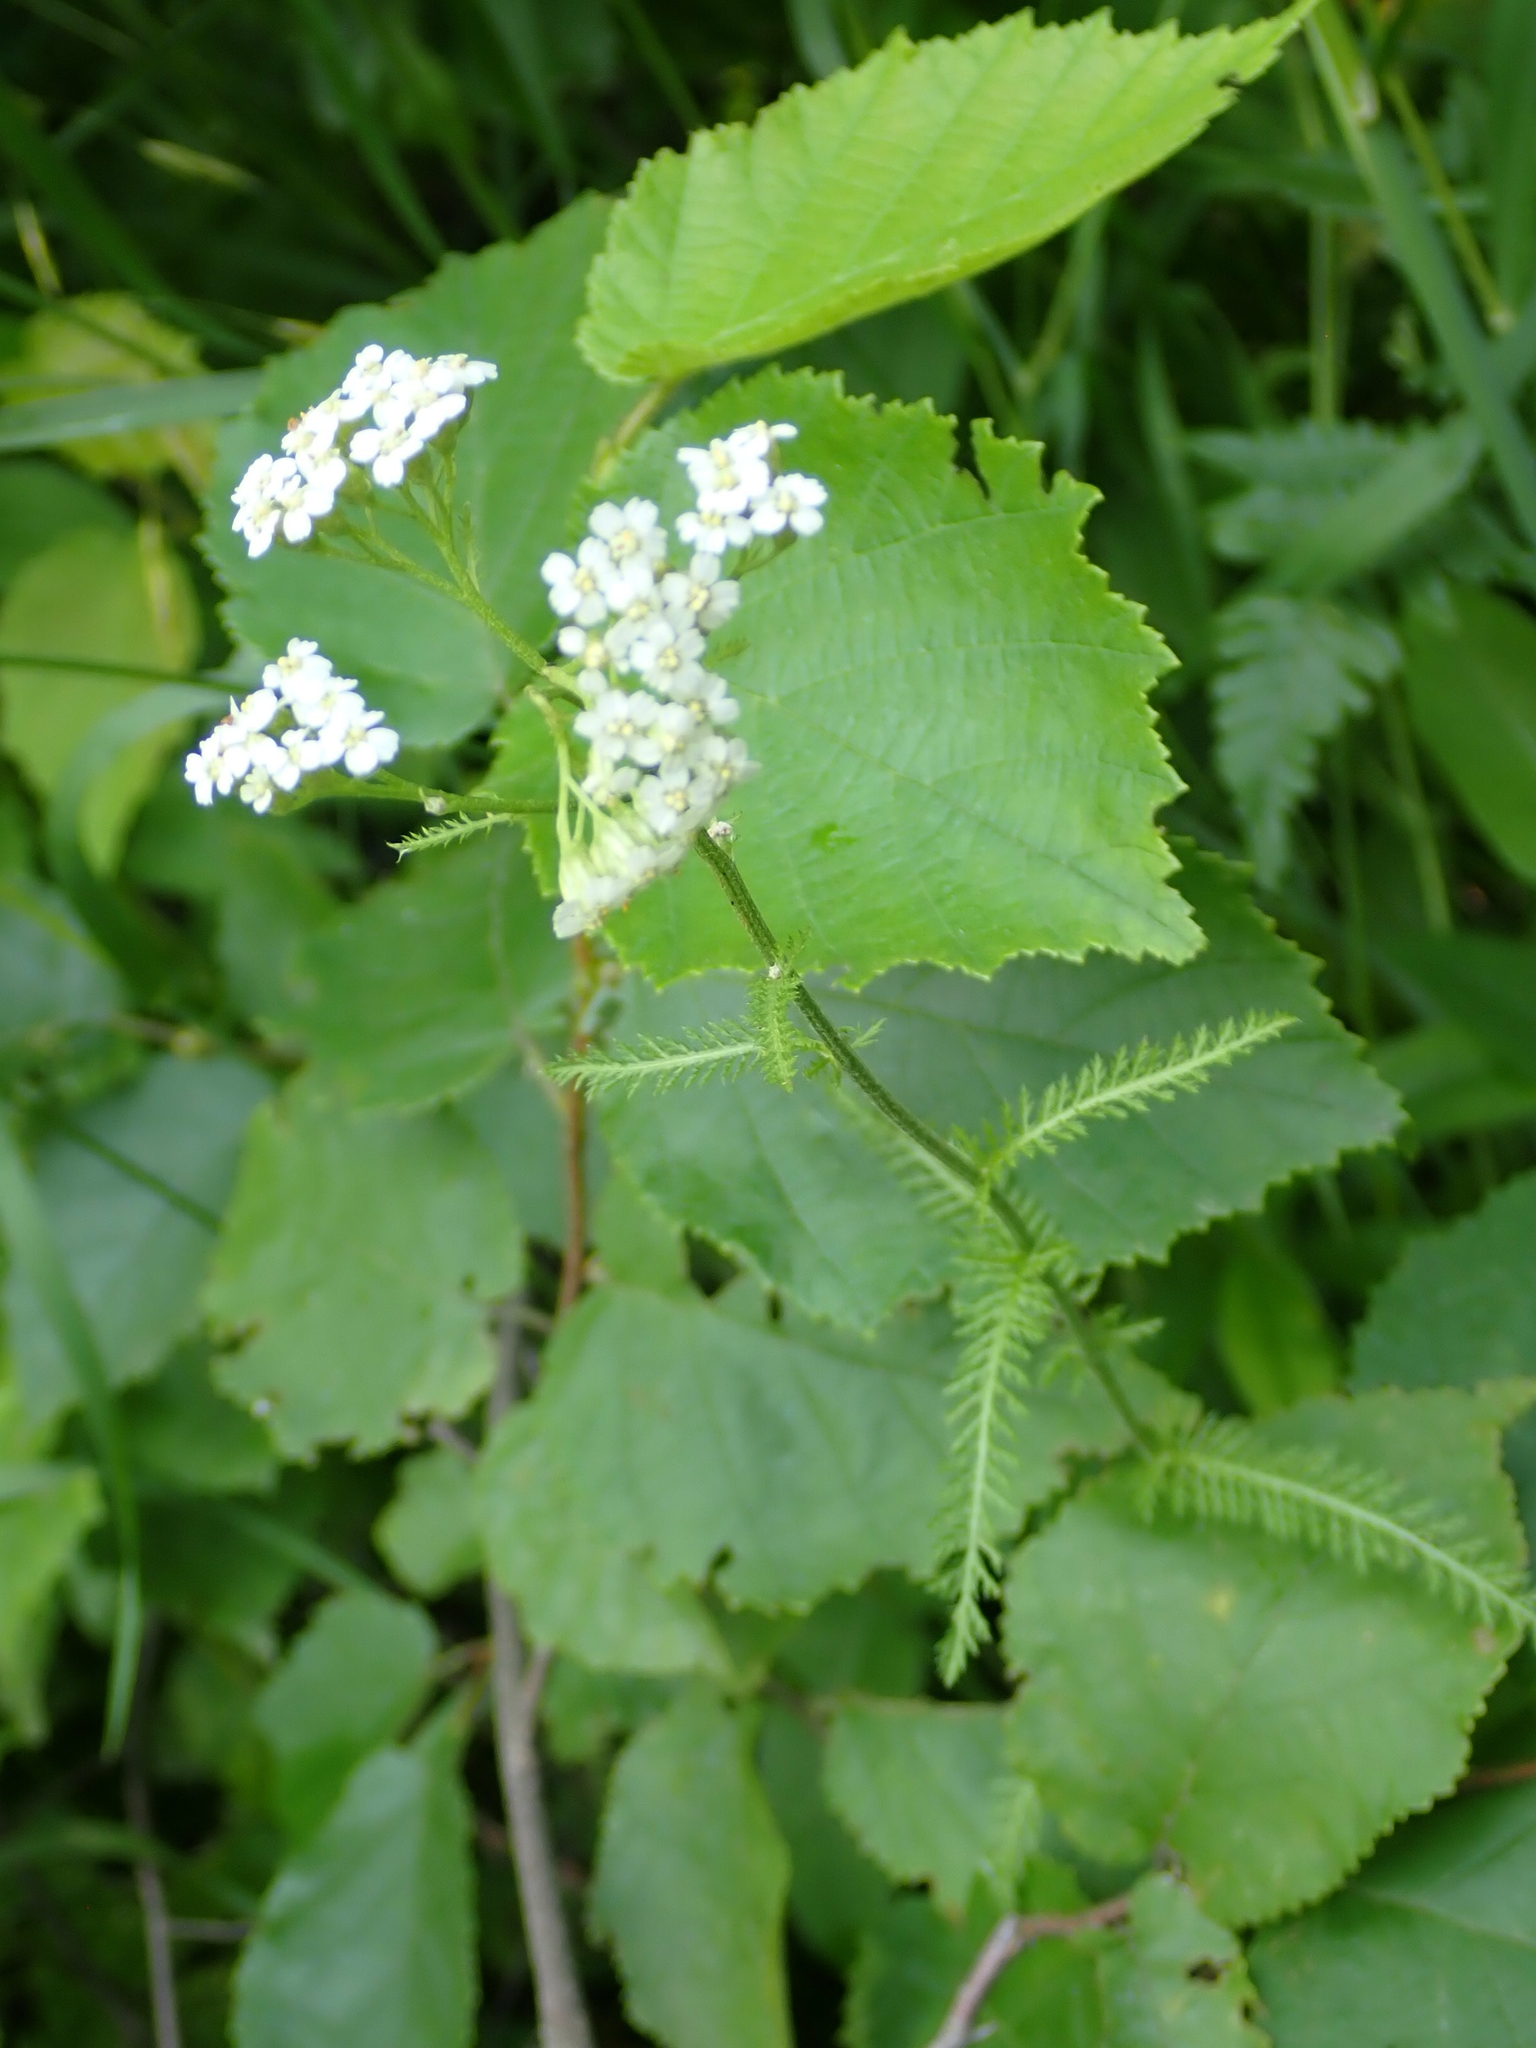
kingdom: Plantae
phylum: Tracheophyta
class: Magnoliopsida
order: Asterales
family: Asteraceae
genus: Achillea
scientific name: Achillea millefolium
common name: Yarrow
